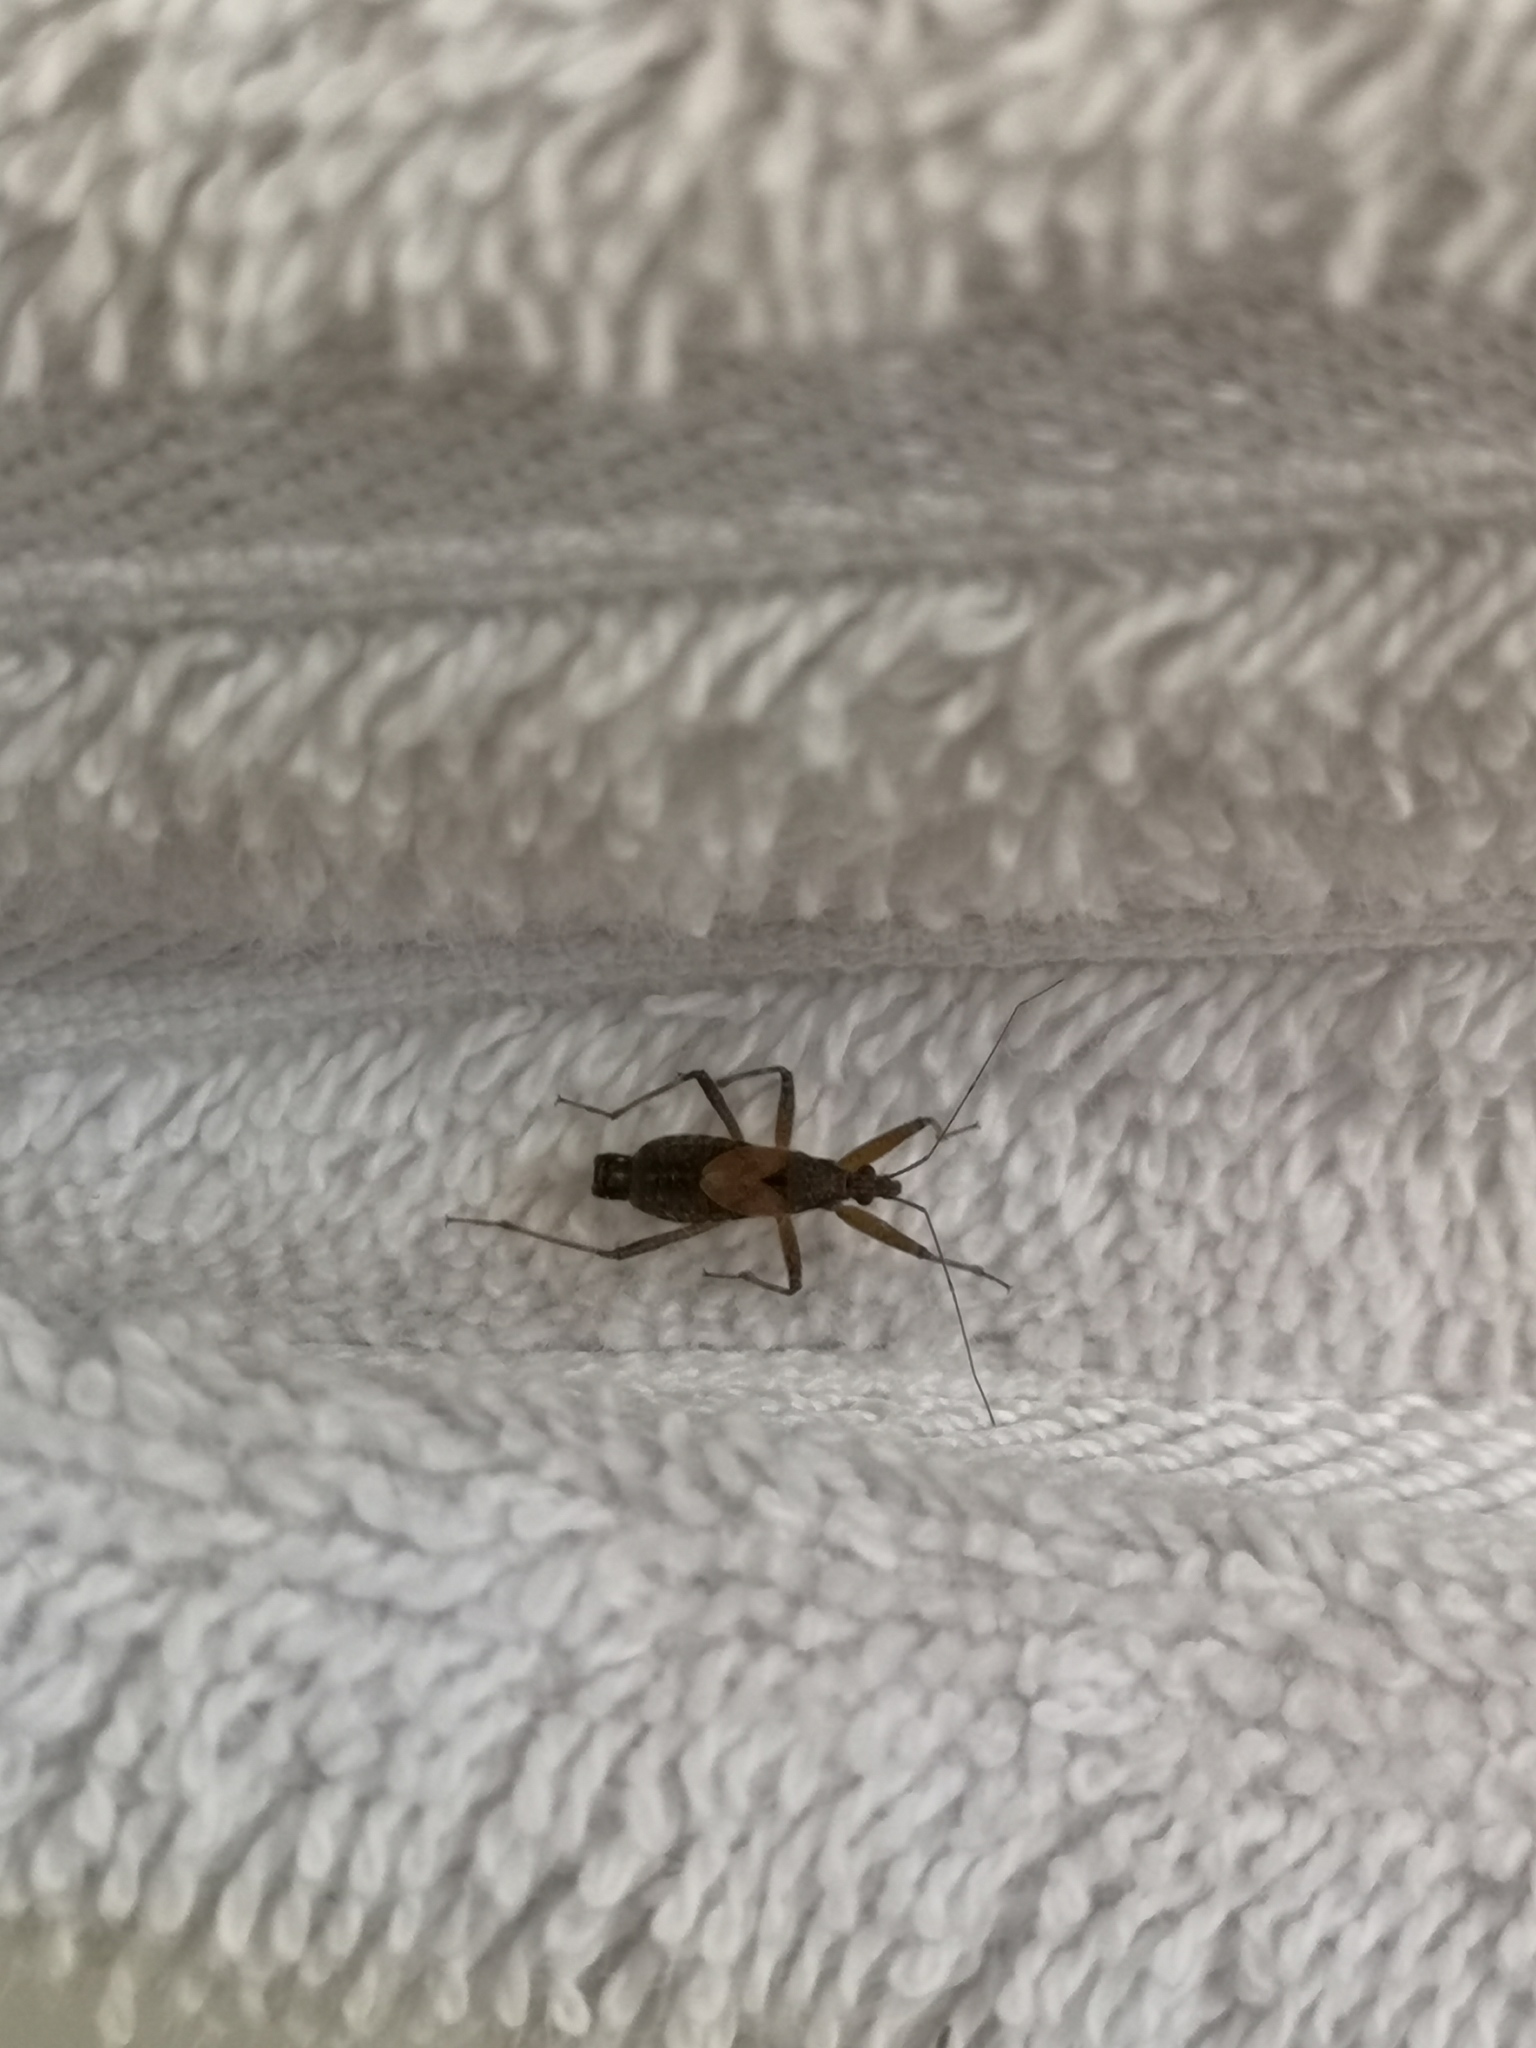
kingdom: Animalia
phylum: Arthropoda
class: Insecta
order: Hemiptera
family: Nabidae
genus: Himacerus
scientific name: Himacerus apterus
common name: Tree damsel bug
